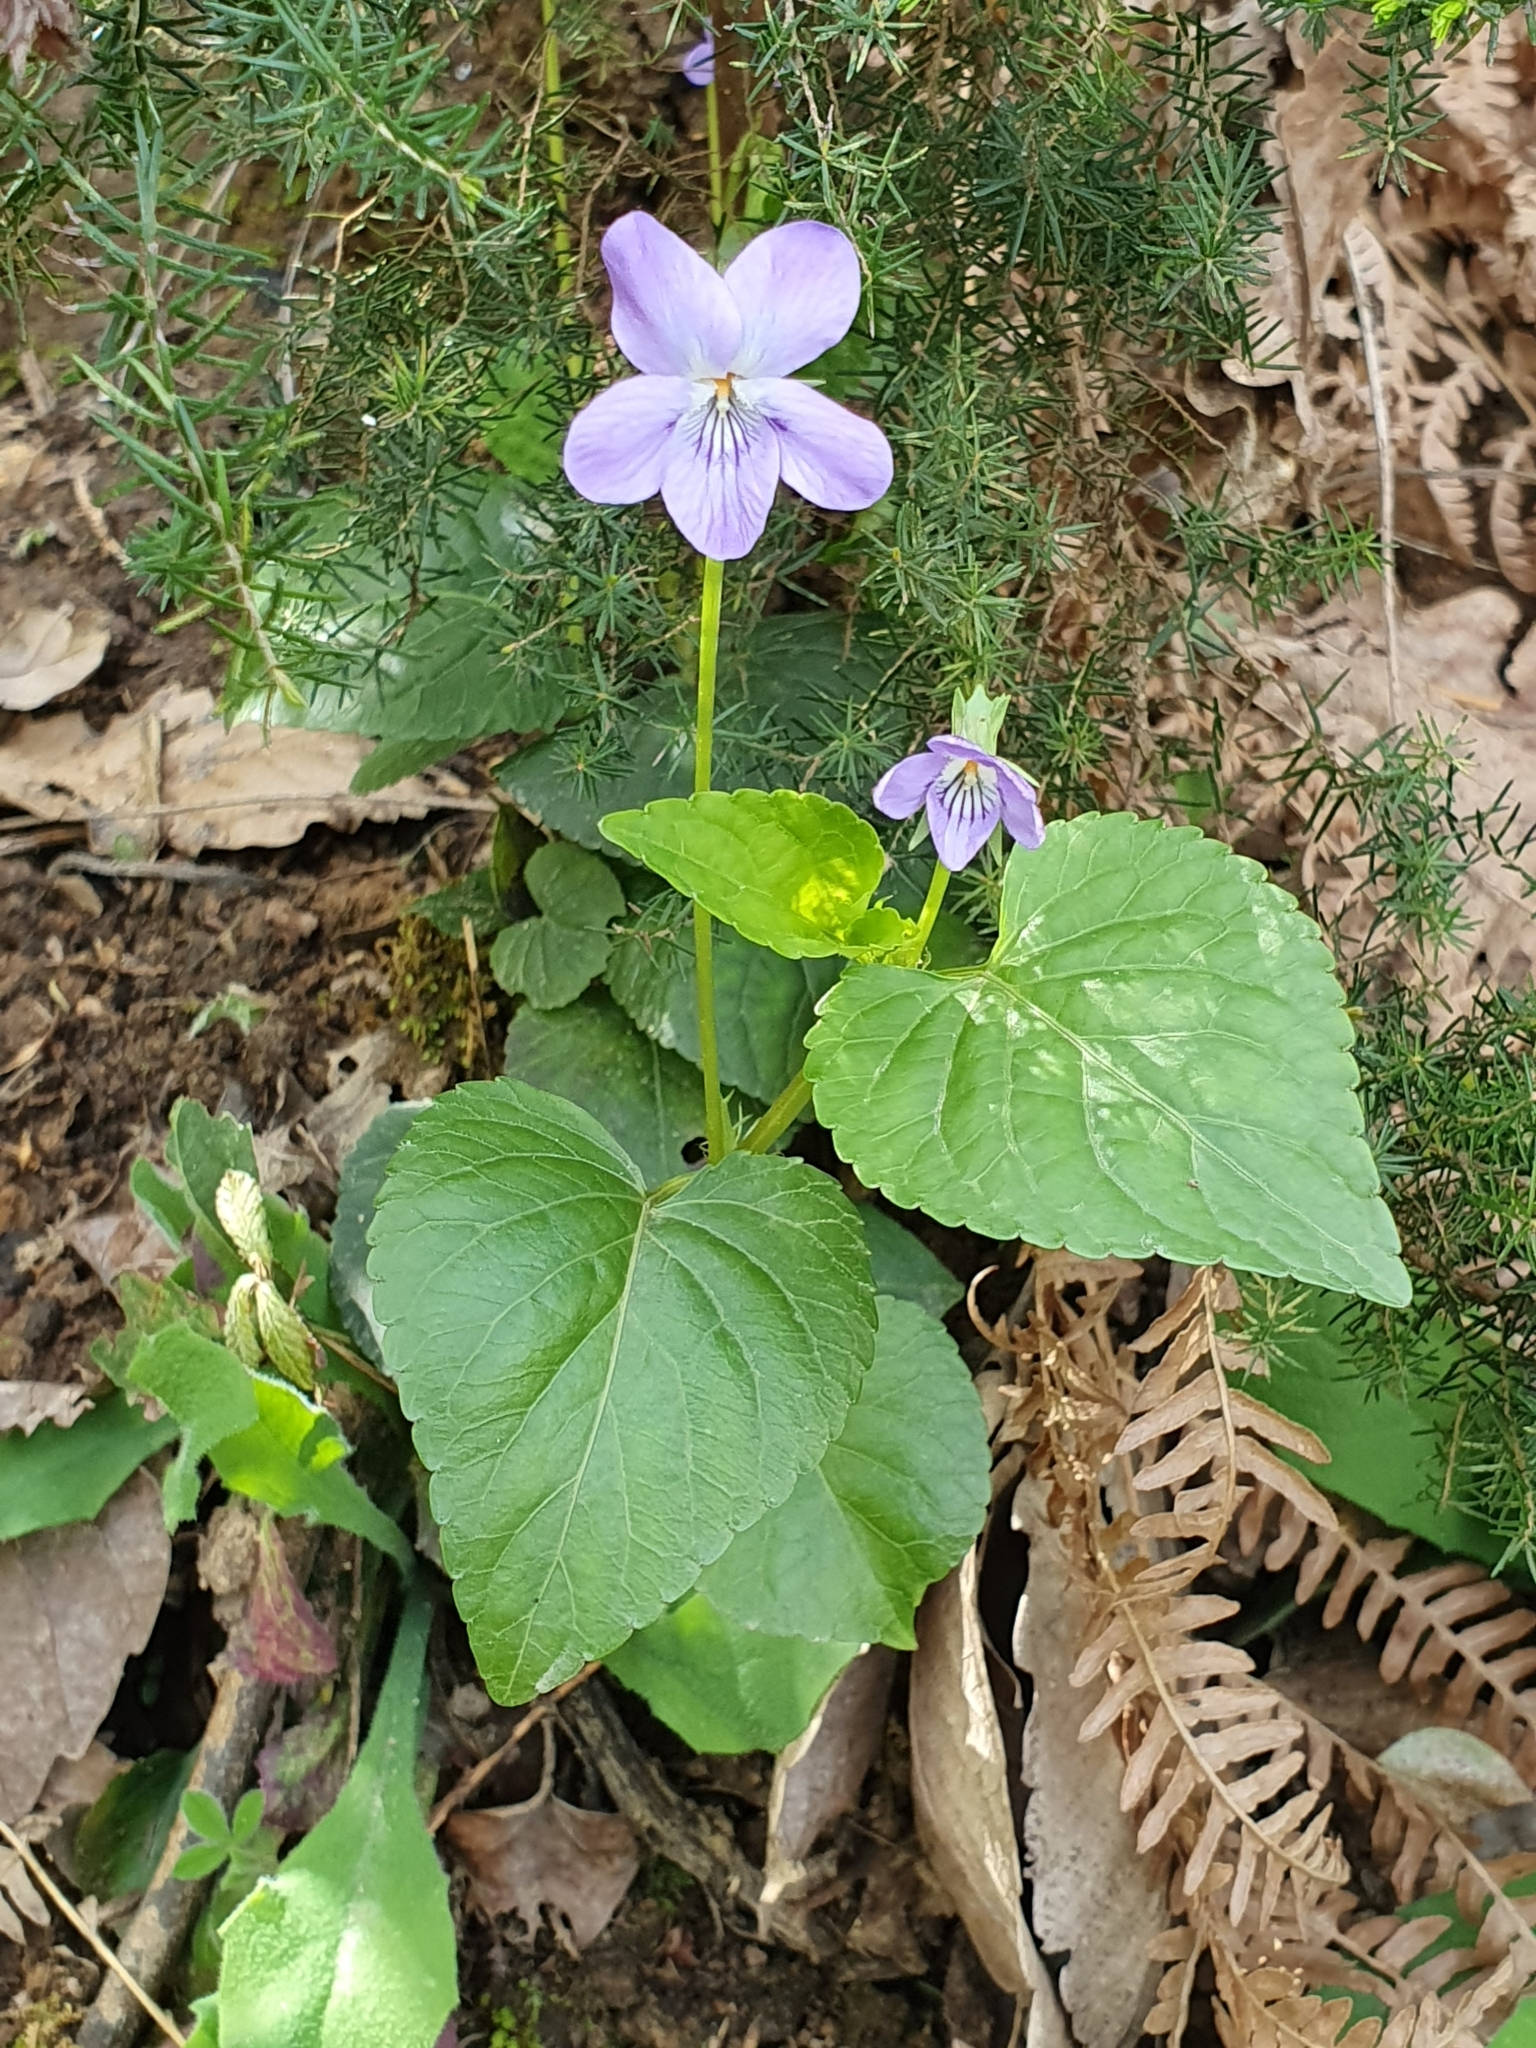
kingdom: Plantae
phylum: Tracheophyta
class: Magnoliopsida
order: Malpighiales
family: Violaceae
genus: Viola
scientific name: Viola riviniana
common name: Common dog-violet
